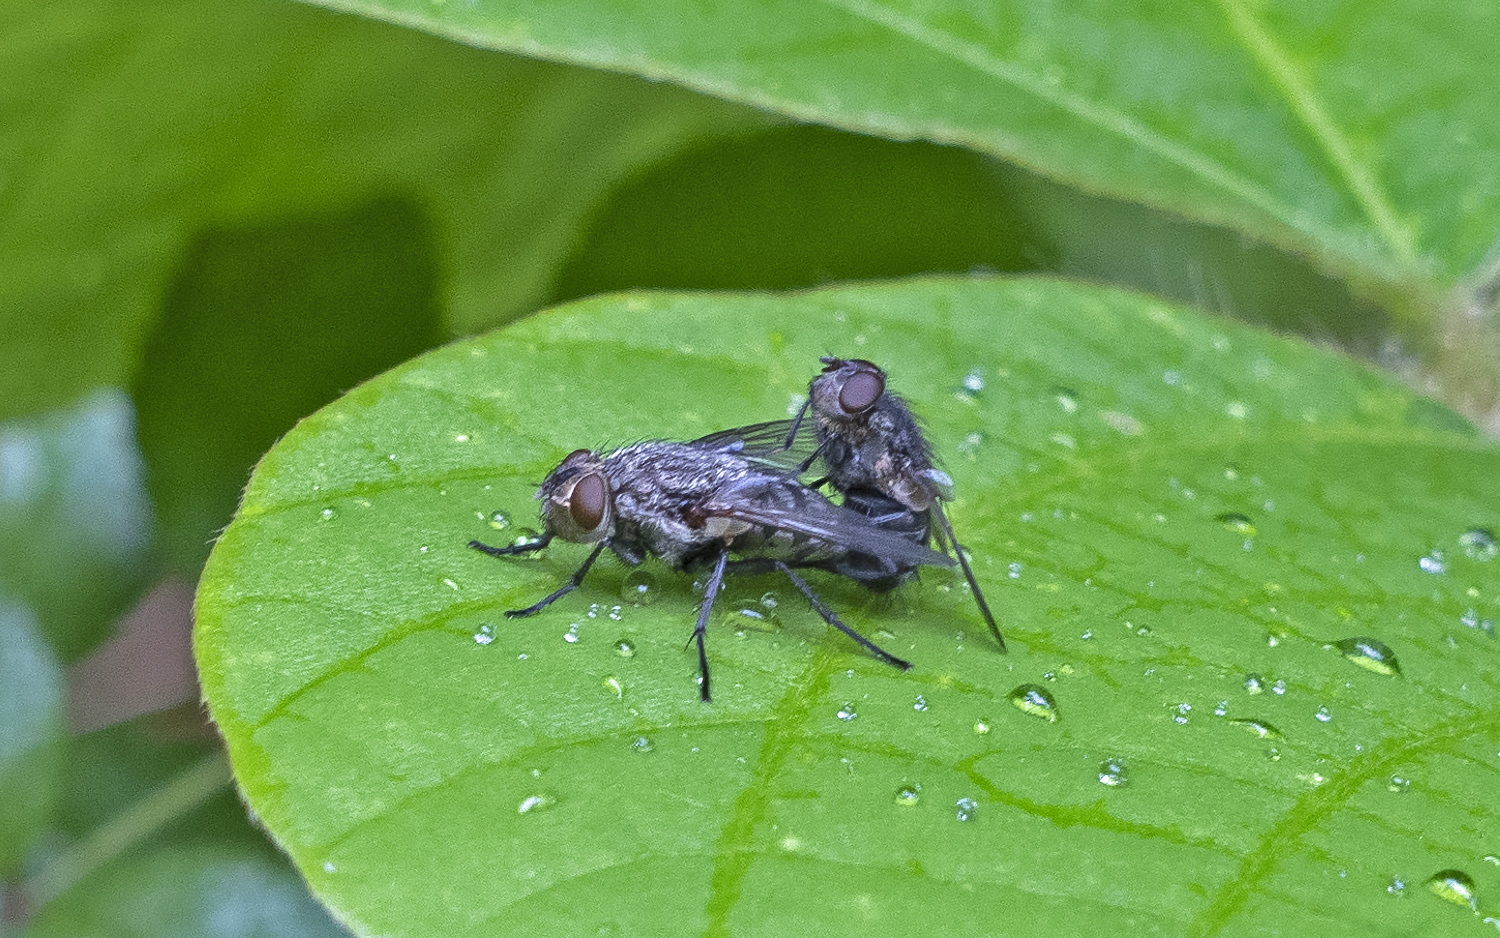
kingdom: Animalia
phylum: Arthropoda
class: Insecta
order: Diptera
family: Polleniidae
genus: Pollenia
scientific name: Pollenia
